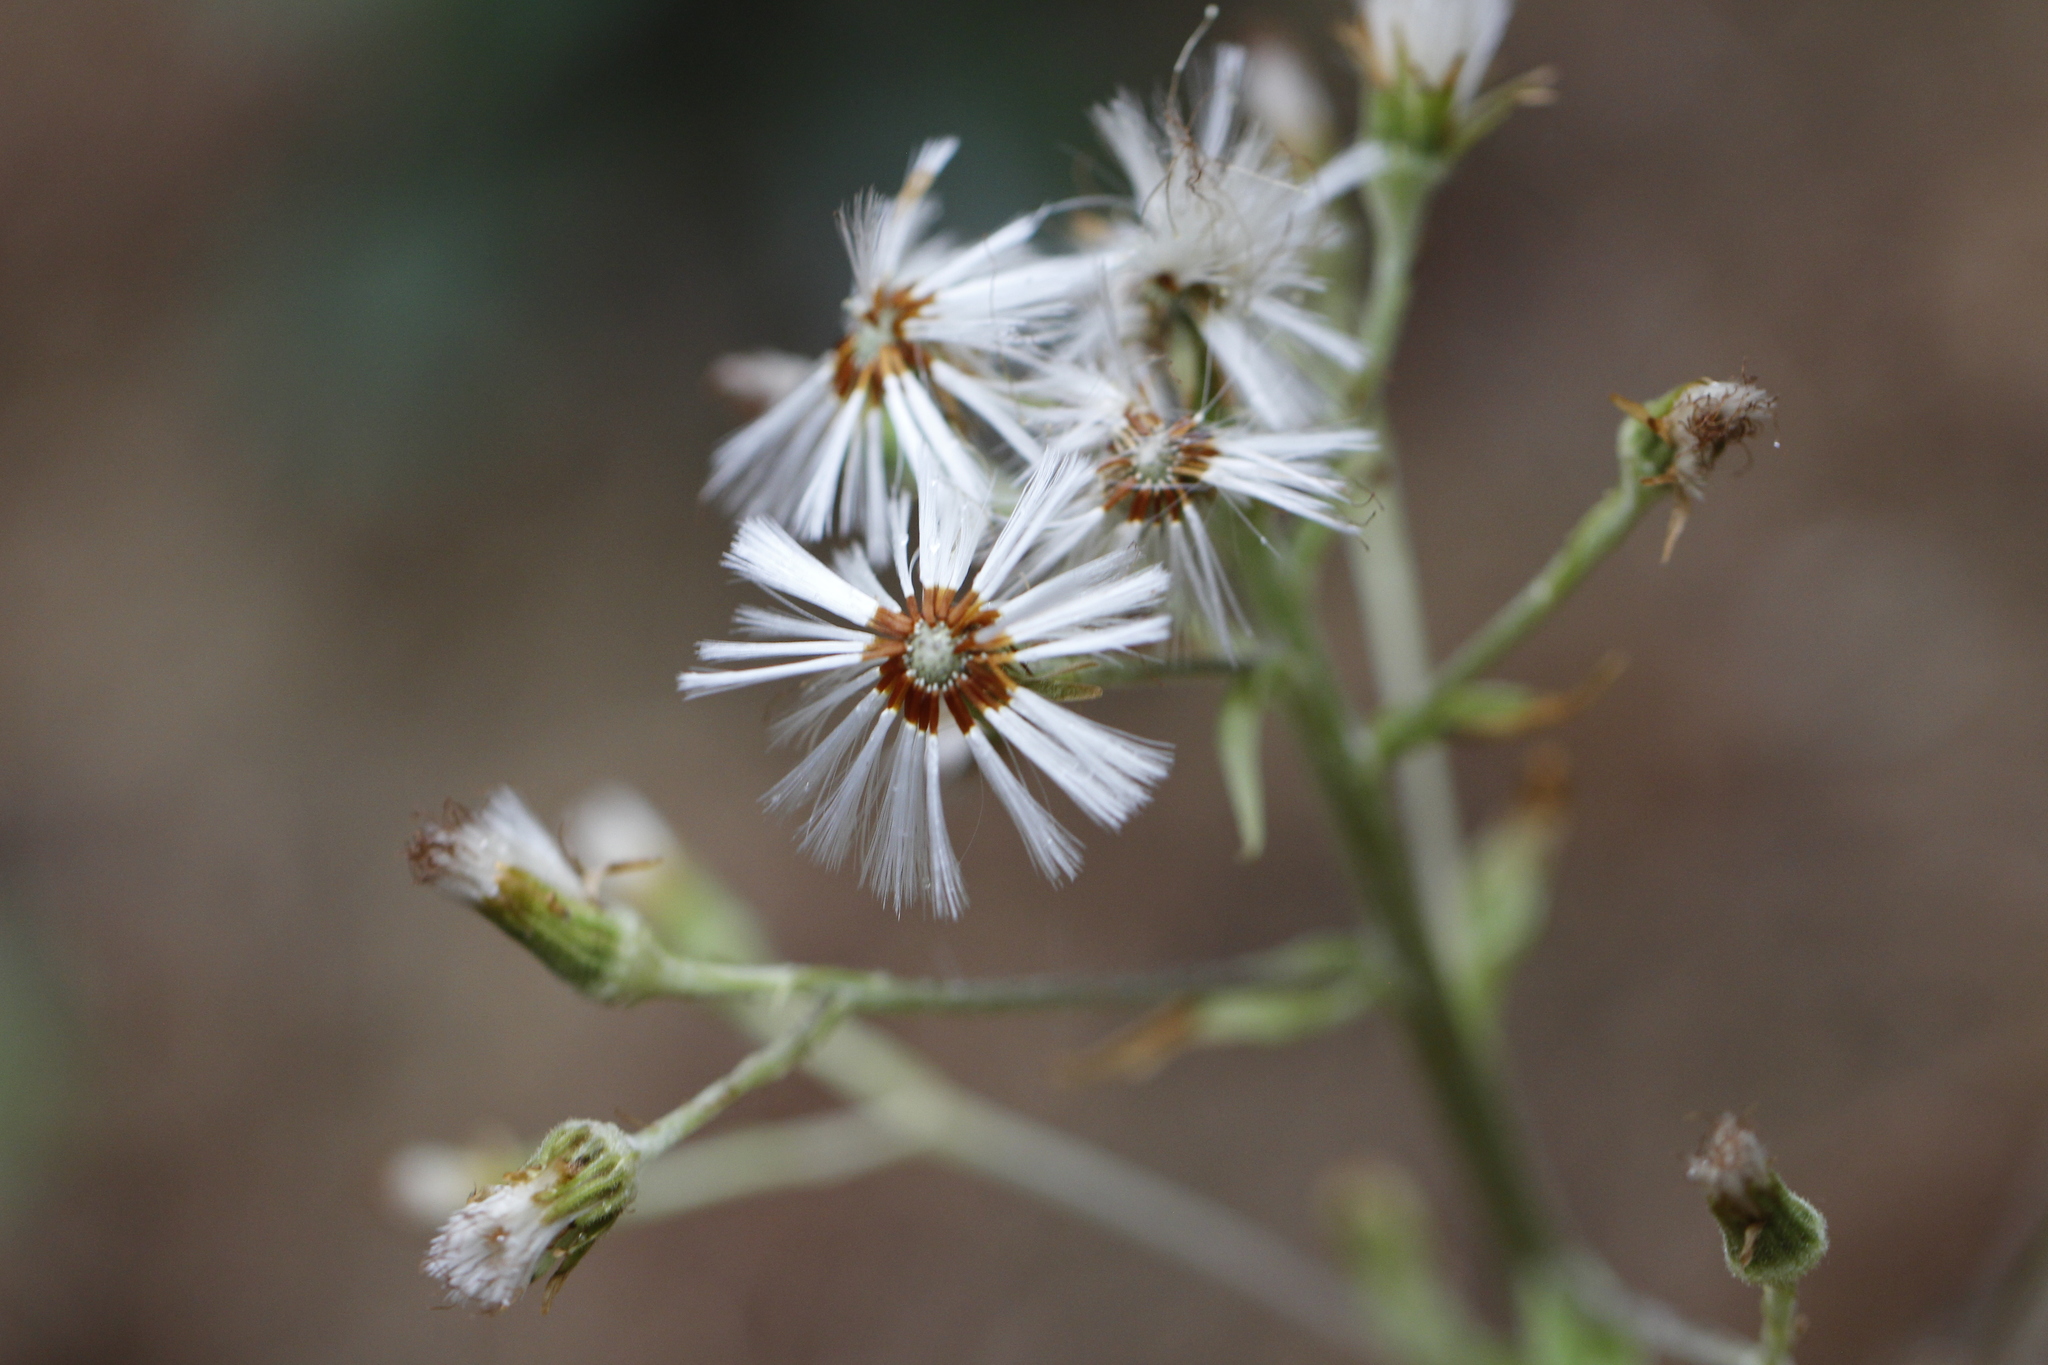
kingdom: Plantae
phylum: Tracheophyta
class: Magnoliopsida
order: Asterales
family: Asteraceae
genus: Petasites
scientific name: Petasites albus
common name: White butterbur
